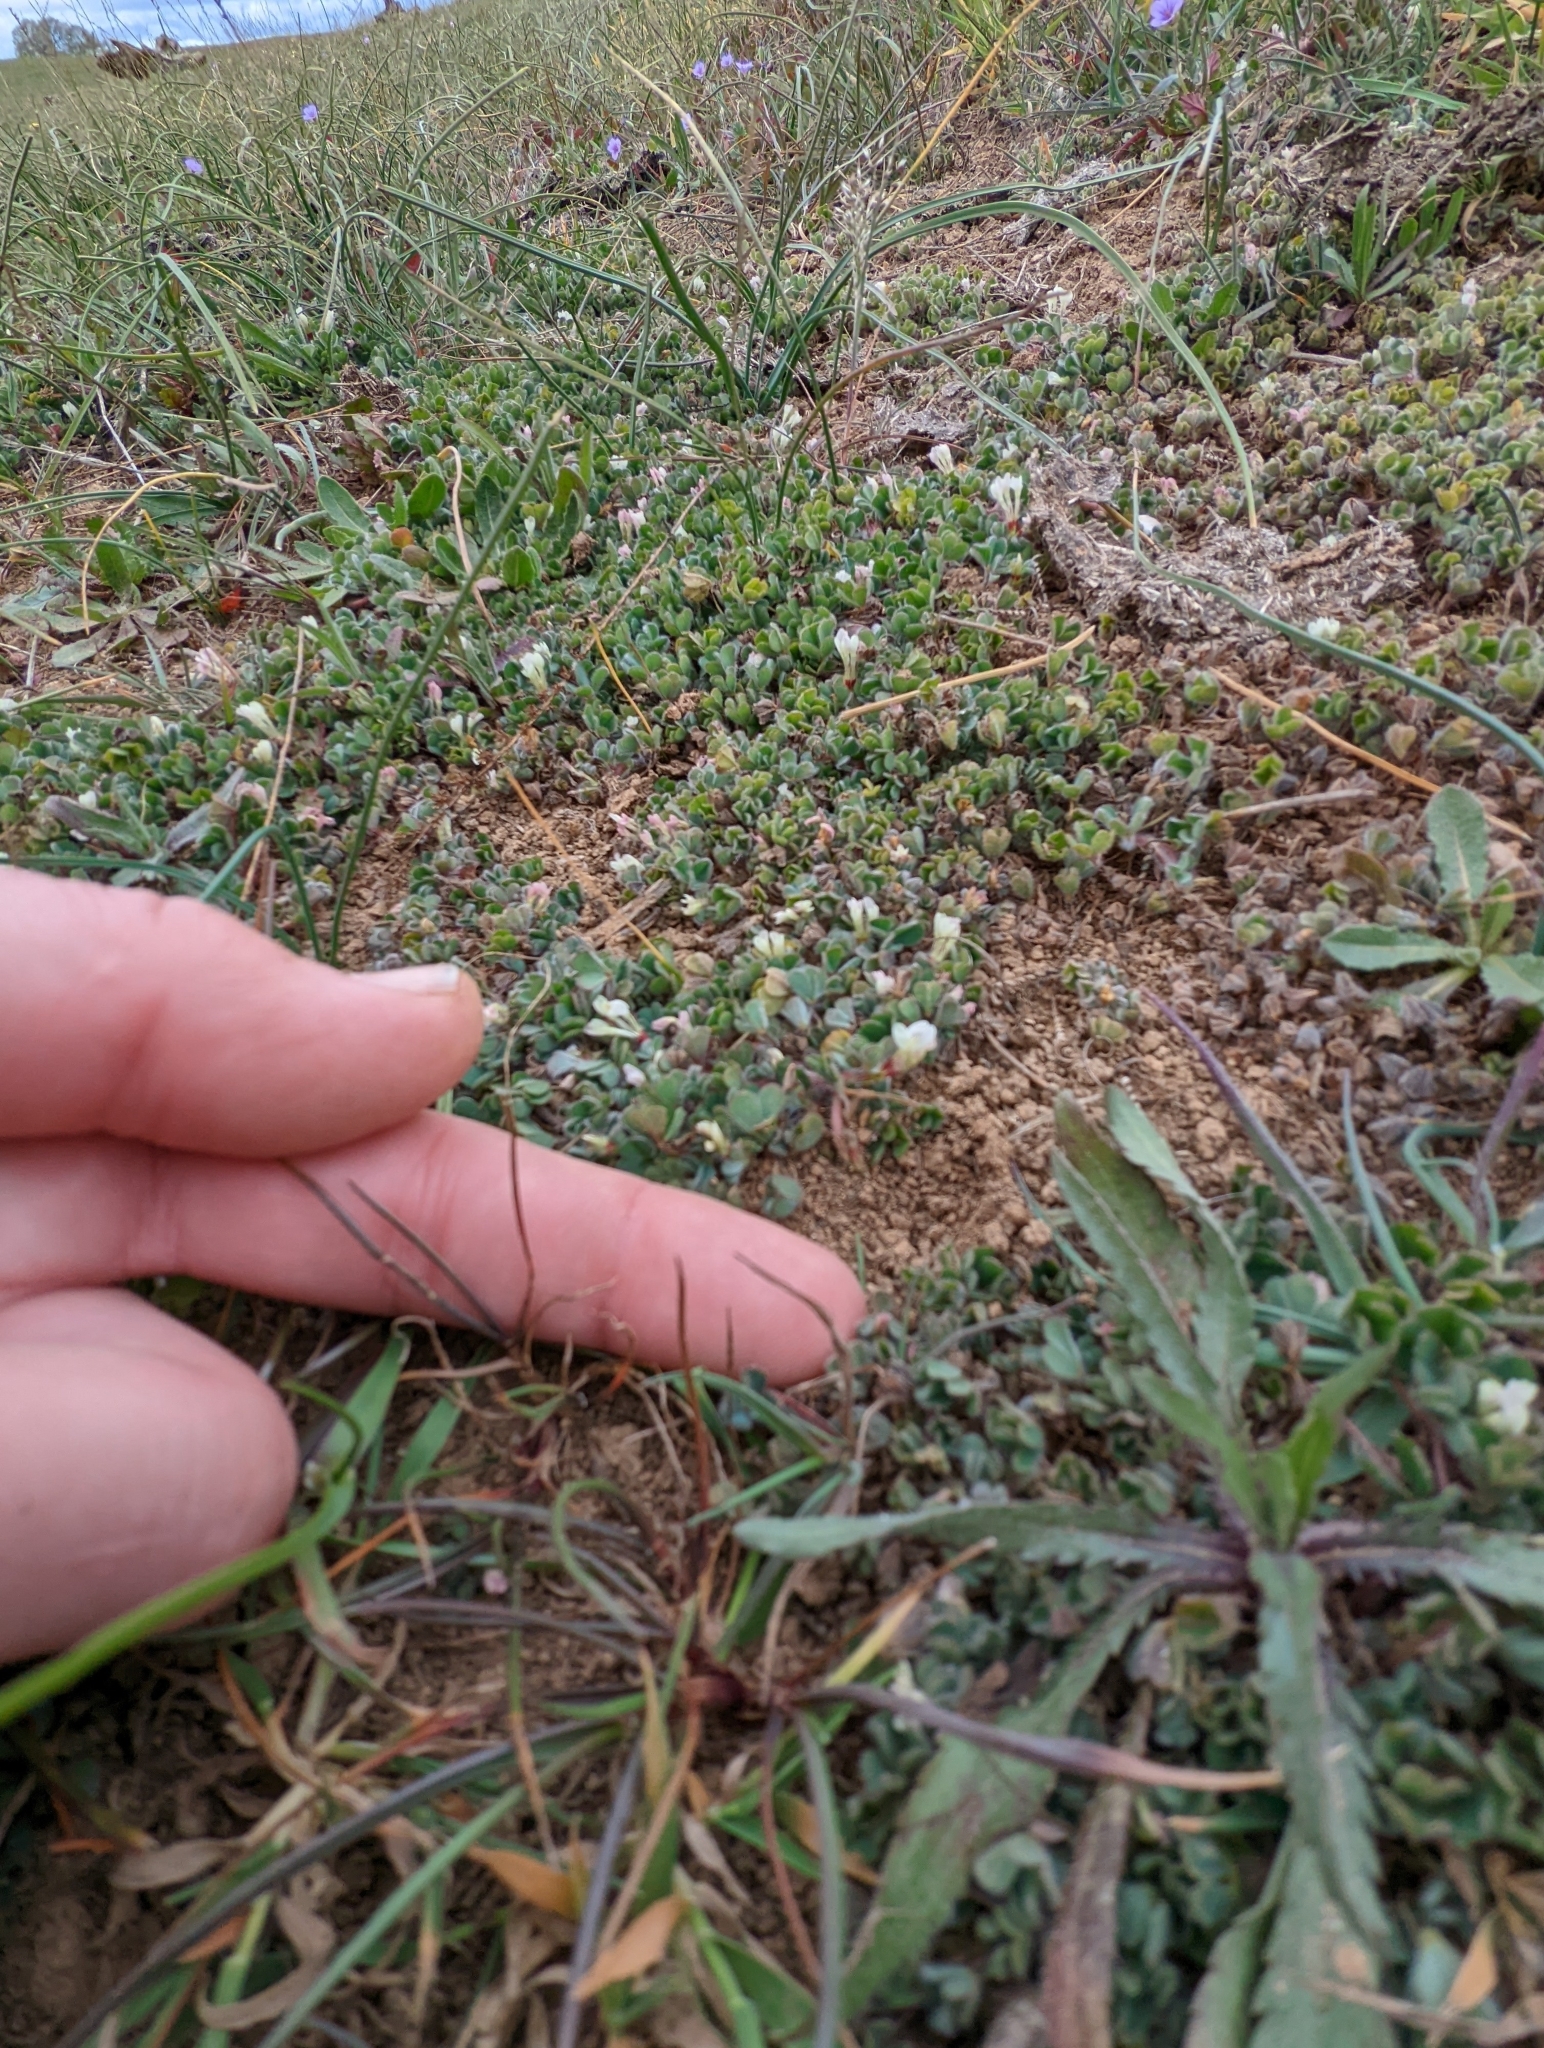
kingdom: Plantae
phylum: Tracheophyta
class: Magnoliopsida
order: Fabales
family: Fabaceae
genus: Trifolium
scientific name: Trifolium subterraneum
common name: Subterranean clover
